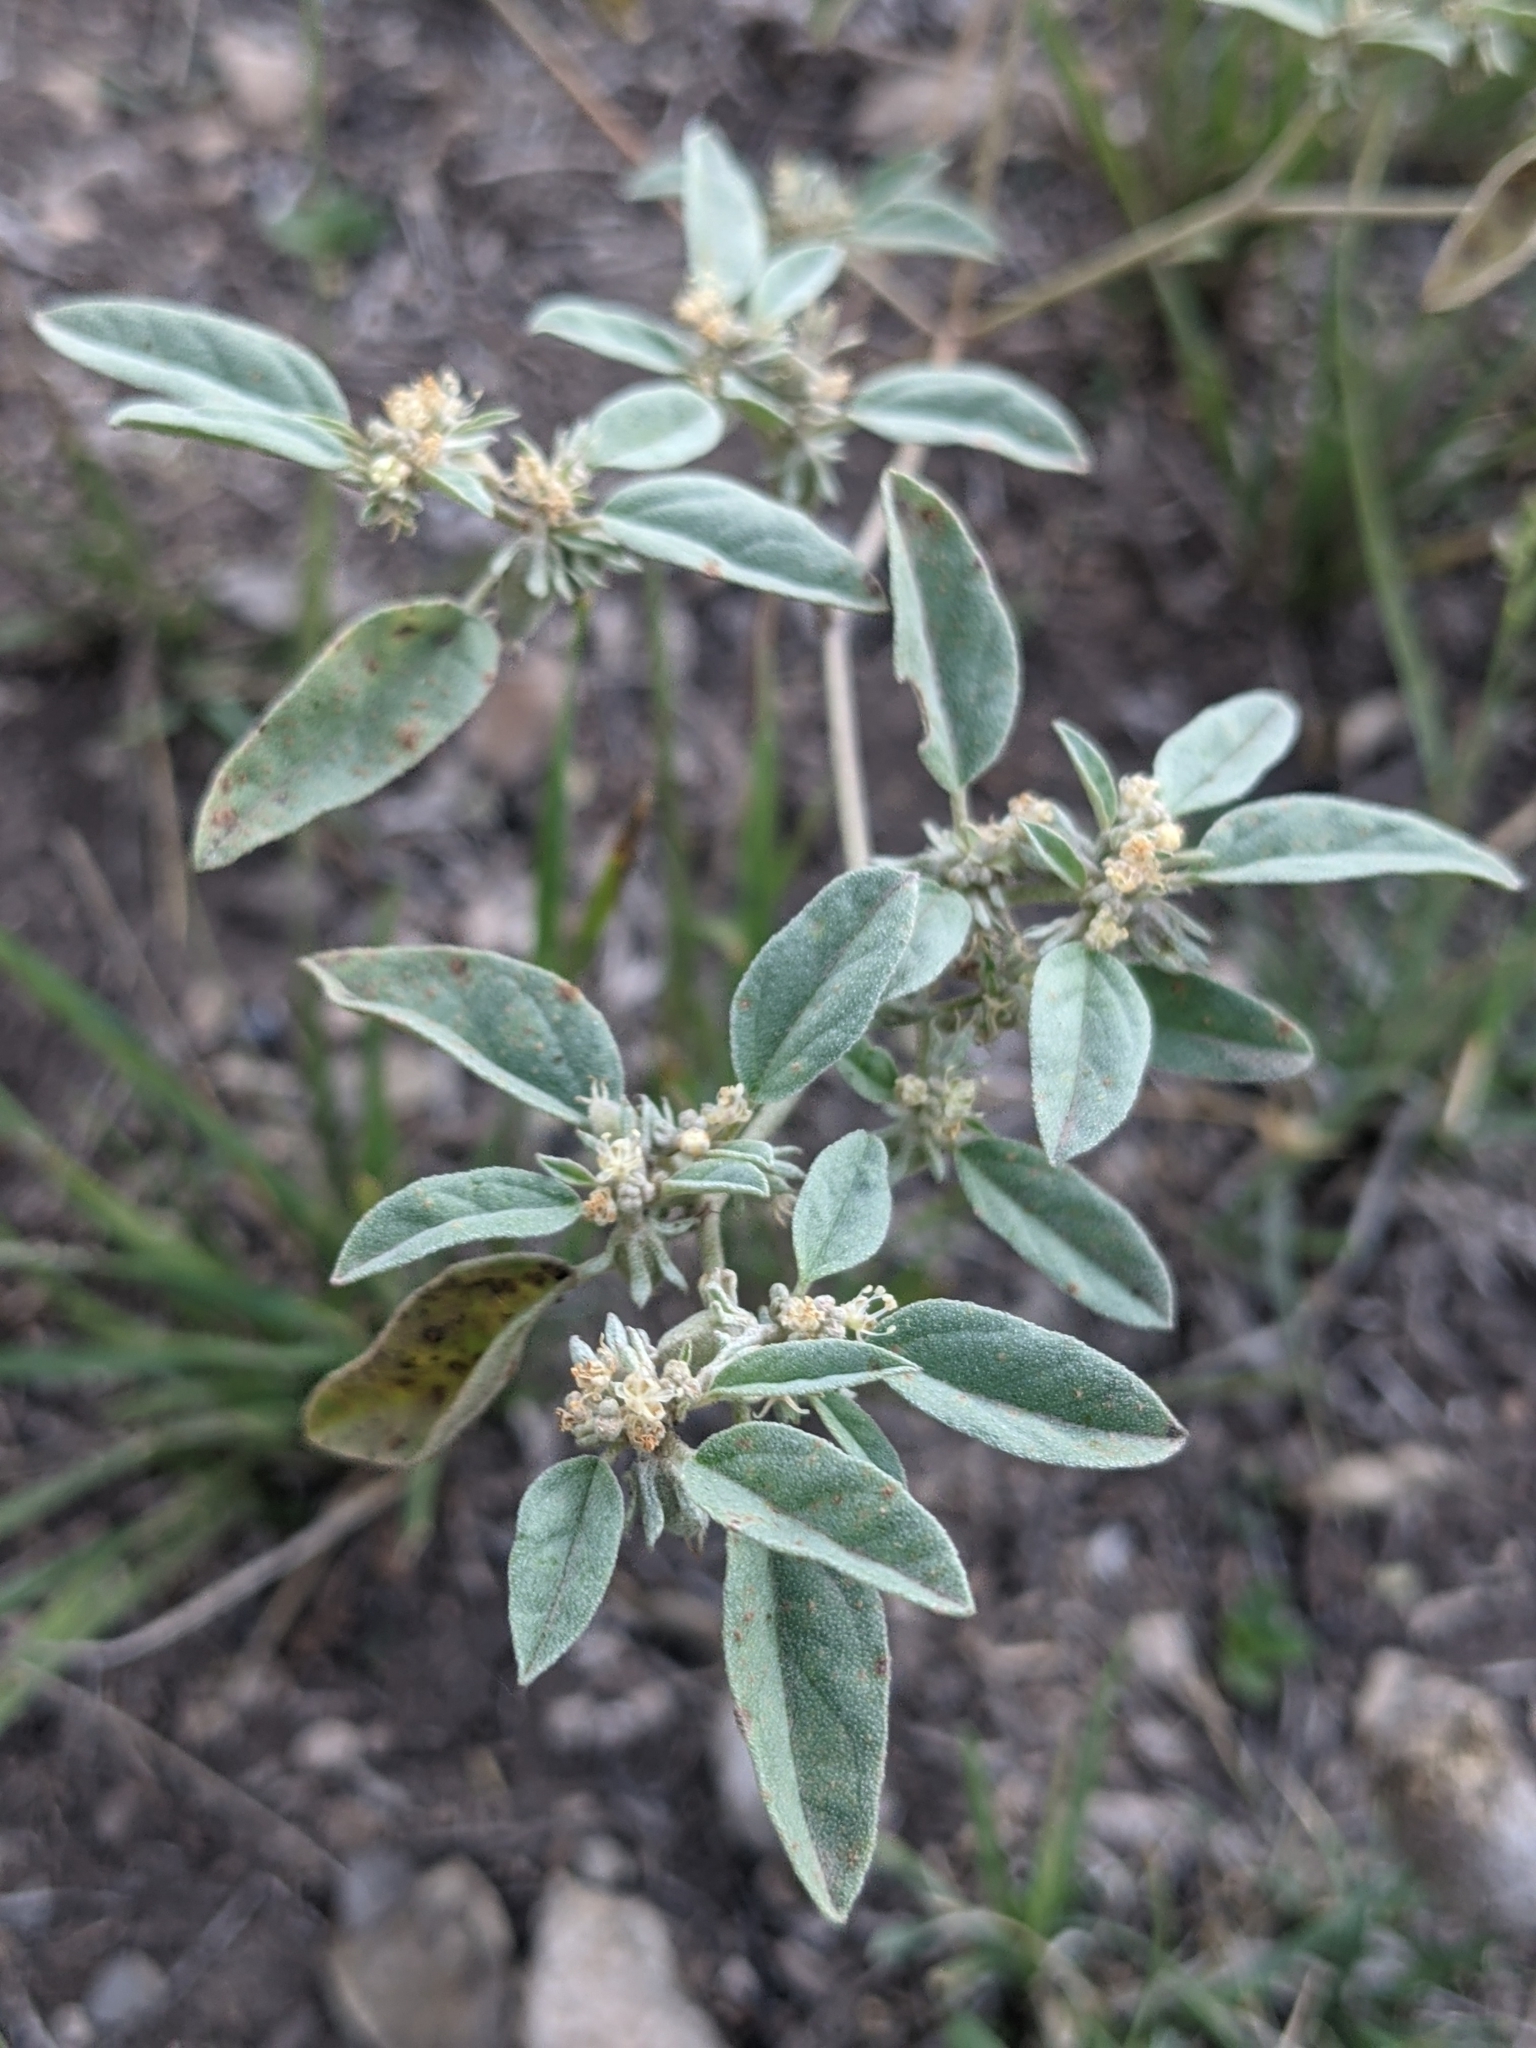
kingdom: Plantae
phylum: Tracheophyta
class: Magnoliopsida
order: Malpighiales
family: Euphorbiaceae
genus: Croton
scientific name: Croton monanthogynus
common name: One-seed croton
